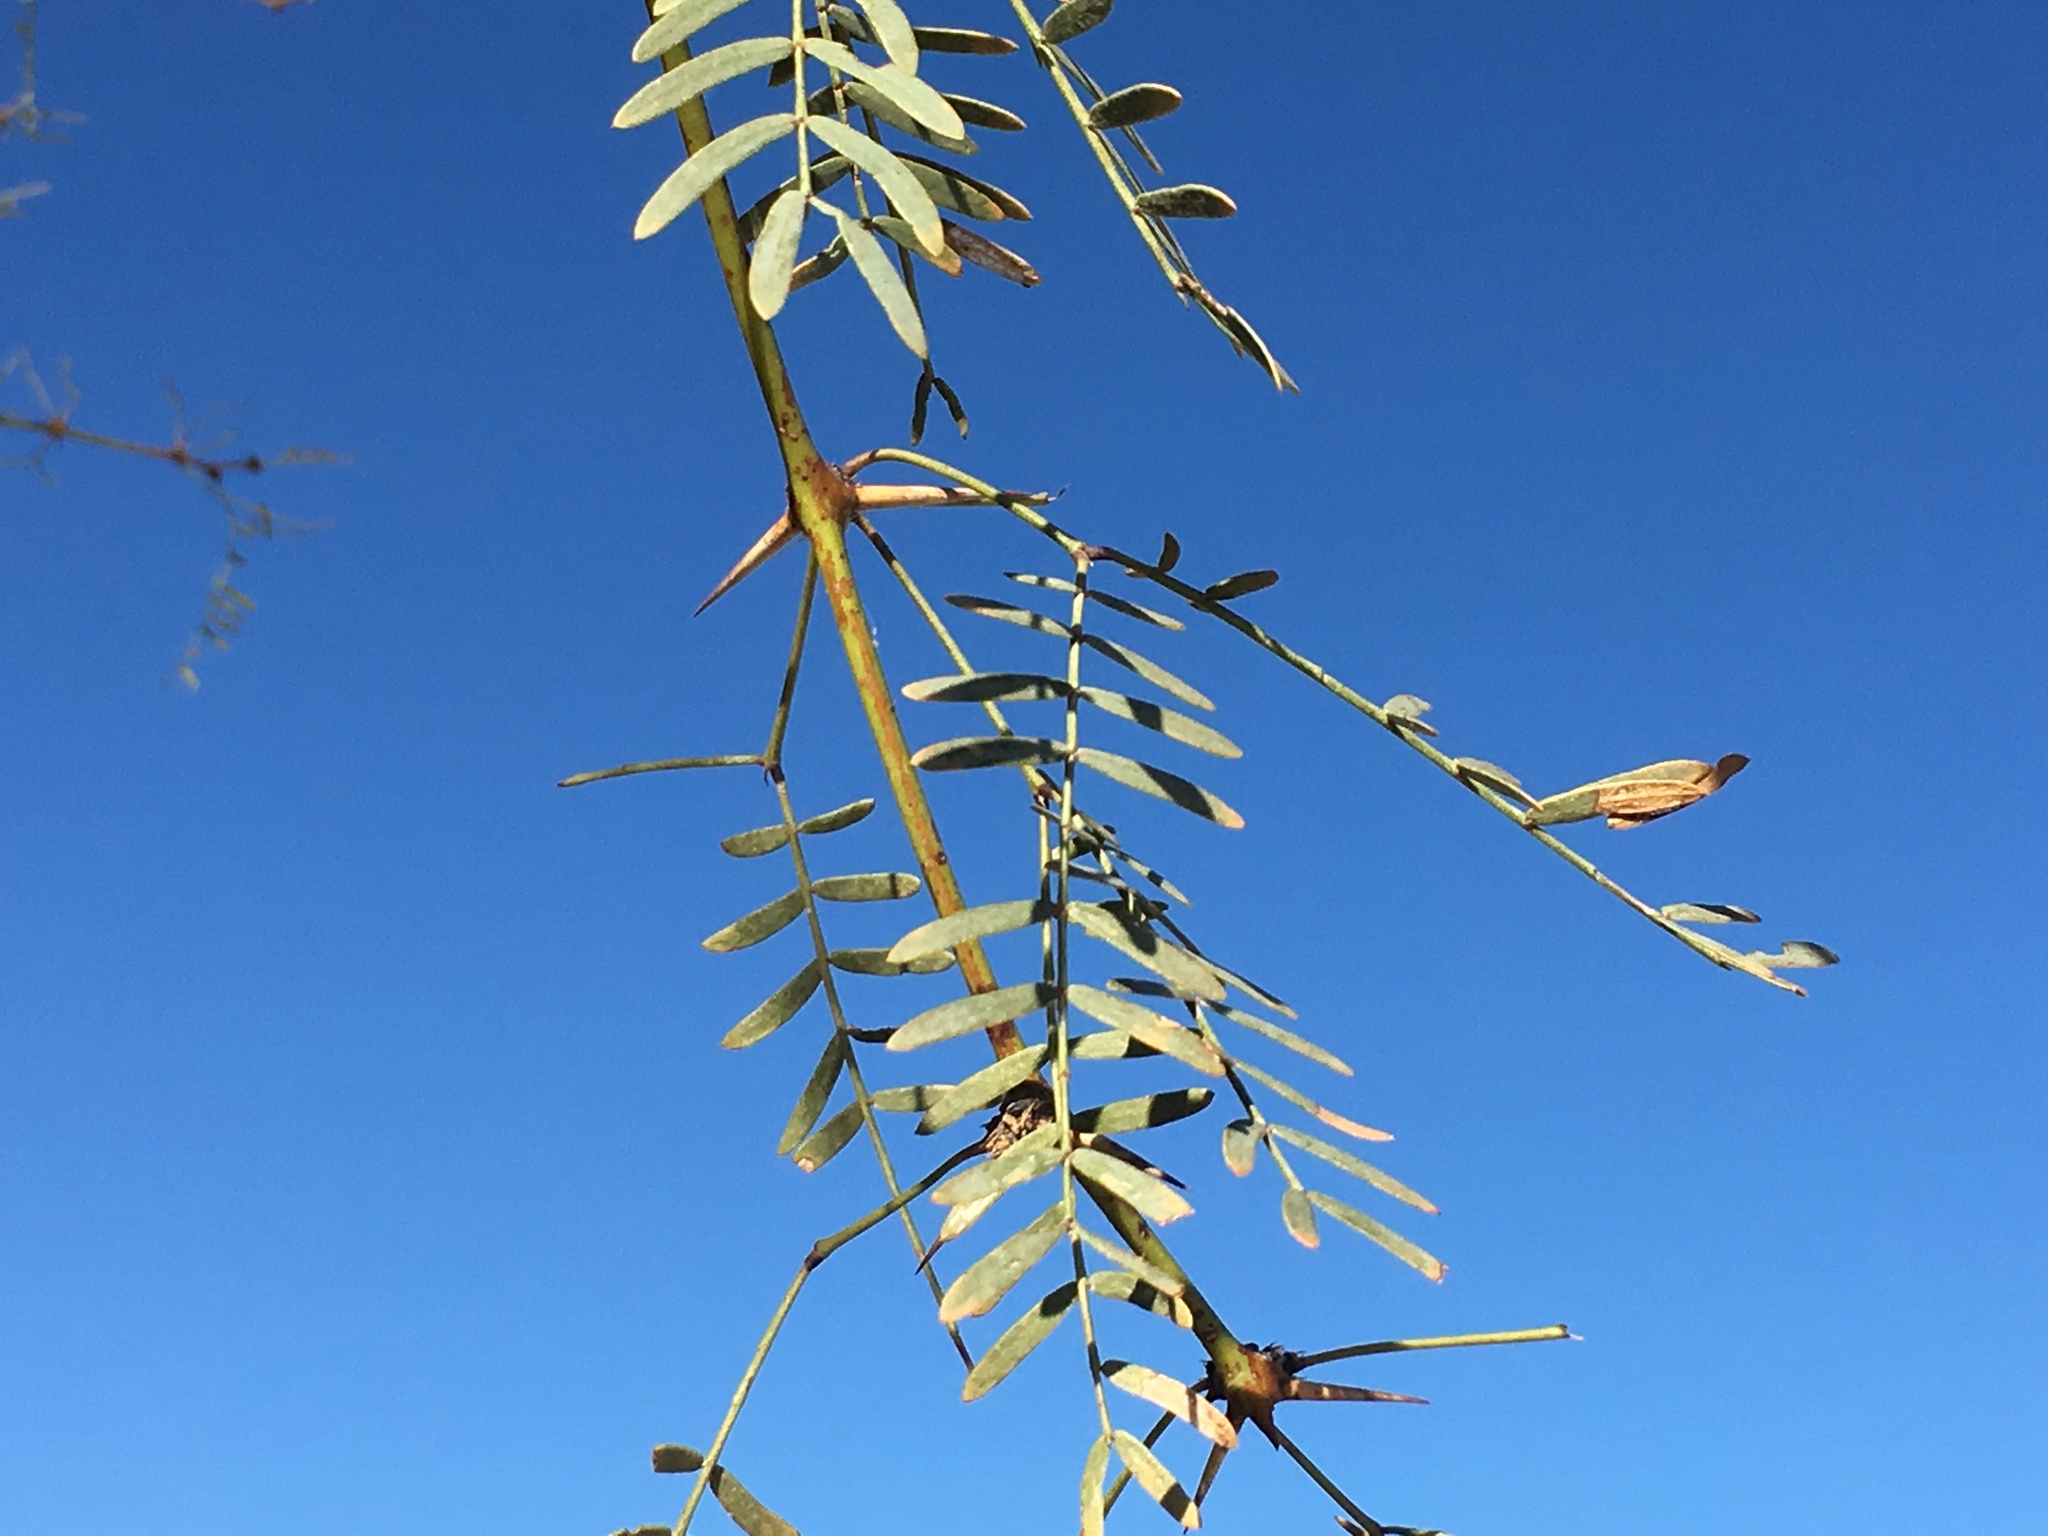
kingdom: Plantae
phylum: Tracheophyta
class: Magnoliopsida
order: Fabales
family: Fabaceae
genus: Prosopis
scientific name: Prosopis pubescens
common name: Screw-bean
